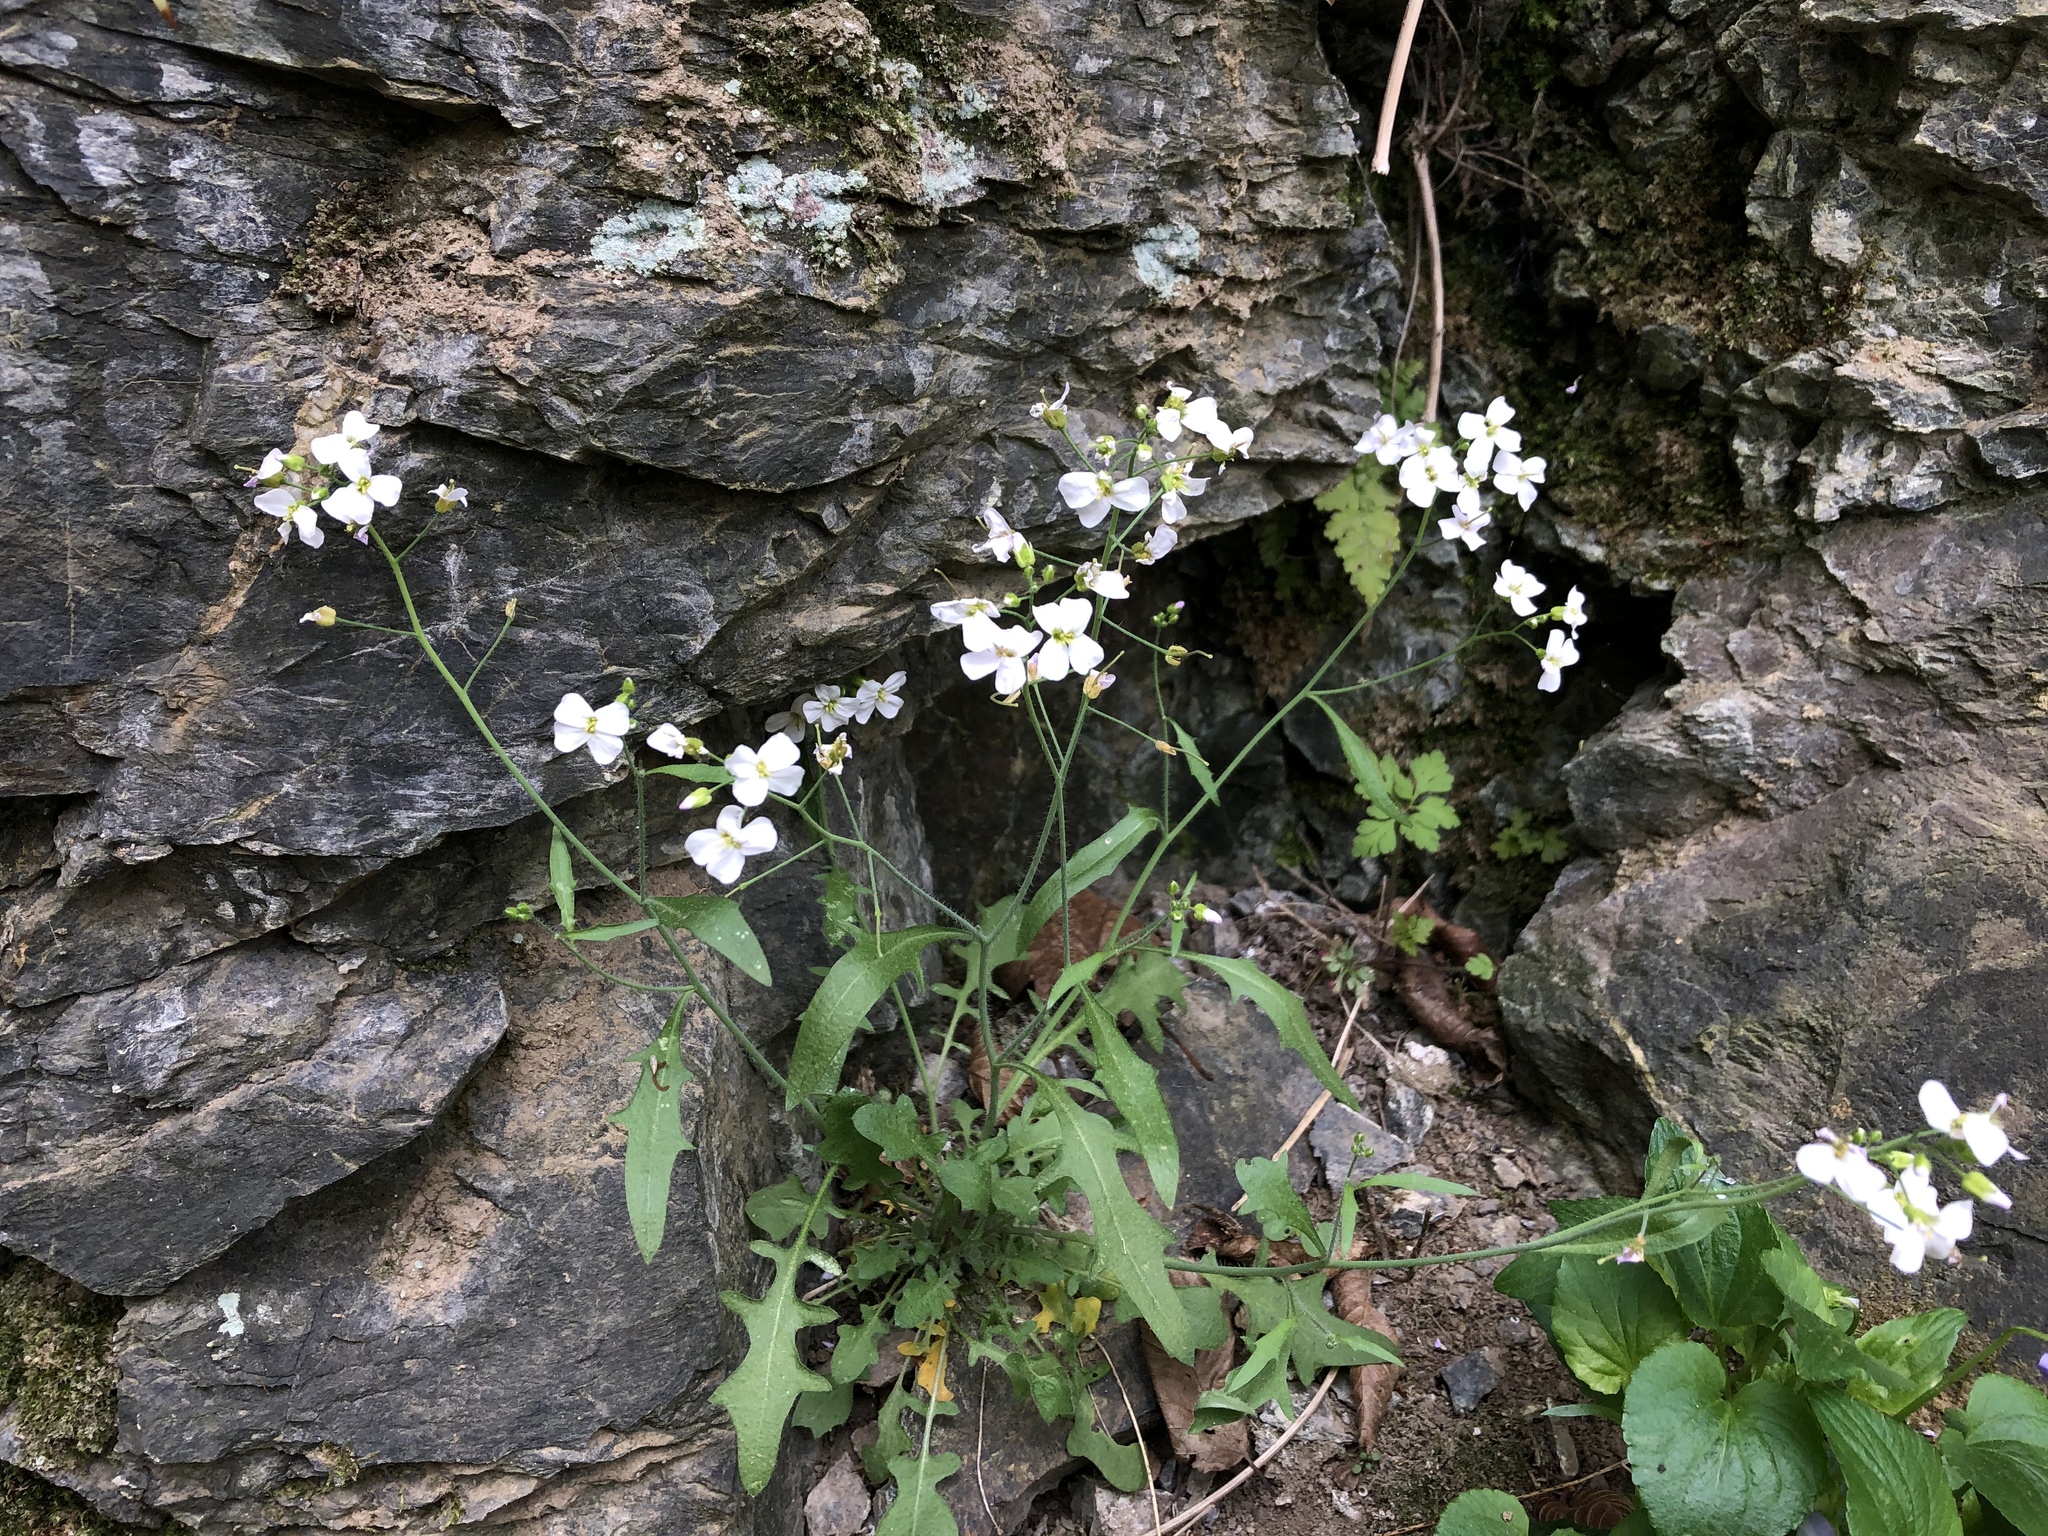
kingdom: Plantae
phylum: Tracheophyta
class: Magnoliopsida
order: Brassicales
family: Brassicaceae
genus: Arabidopsis
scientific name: Arabidopsis arenosa
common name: Sand rock-cress
